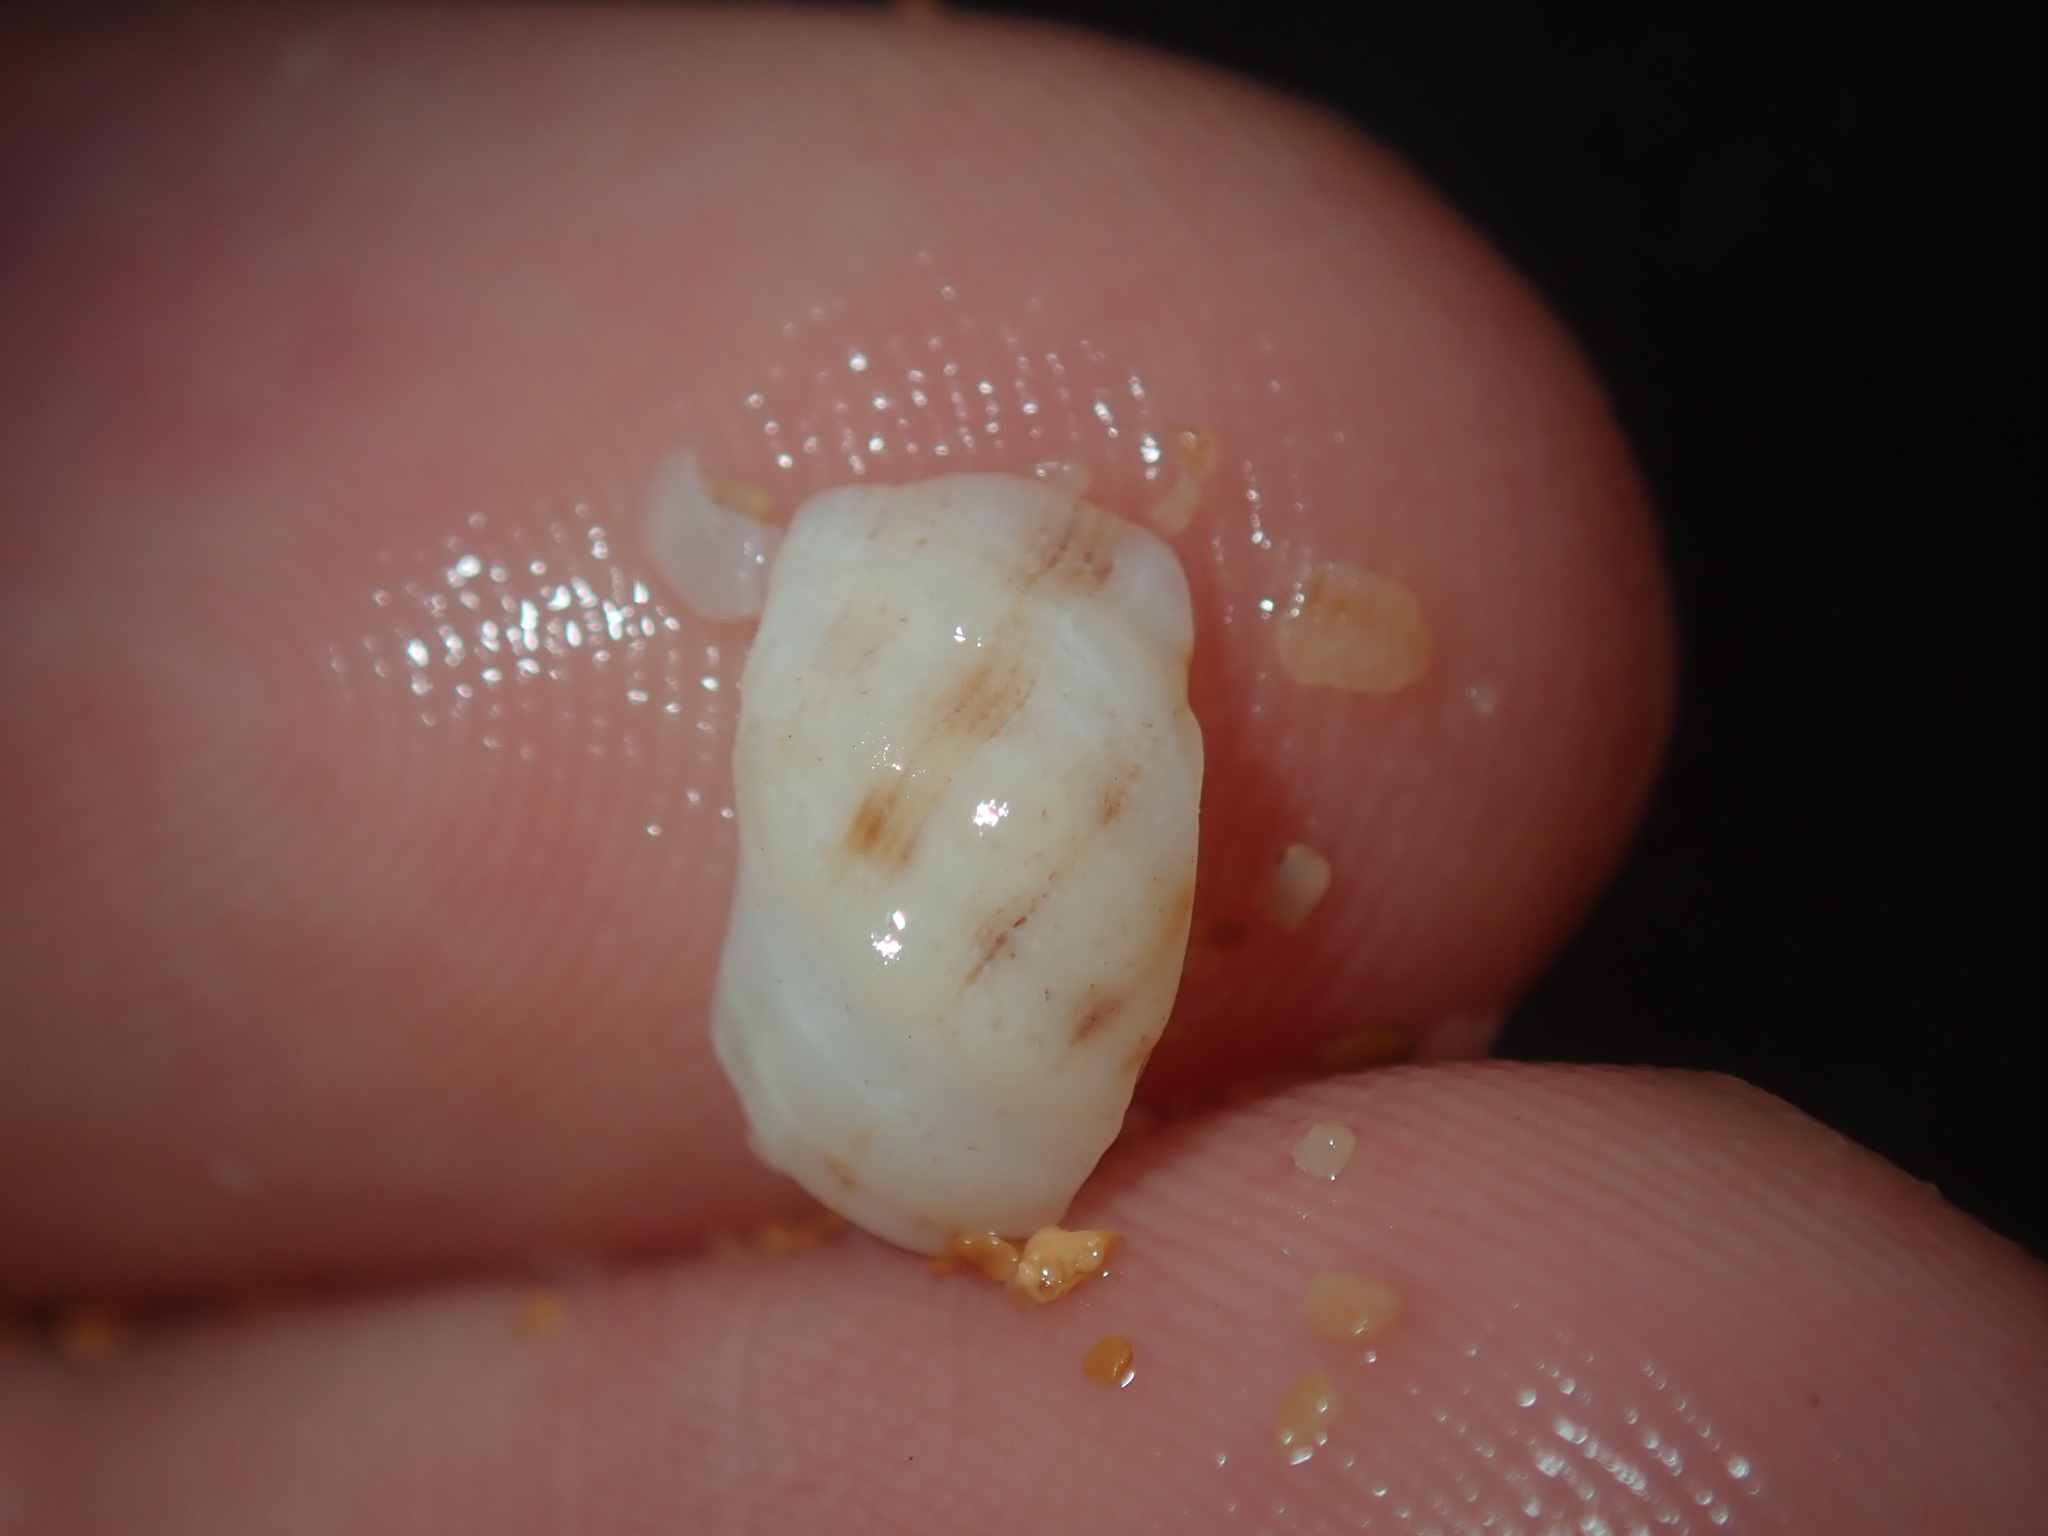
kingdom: Animalia
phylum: Mollusca
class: Gastropoda
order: Neogastropoda
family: Muricidae
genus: Agnewia
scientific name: Agnewia tritoniformis
